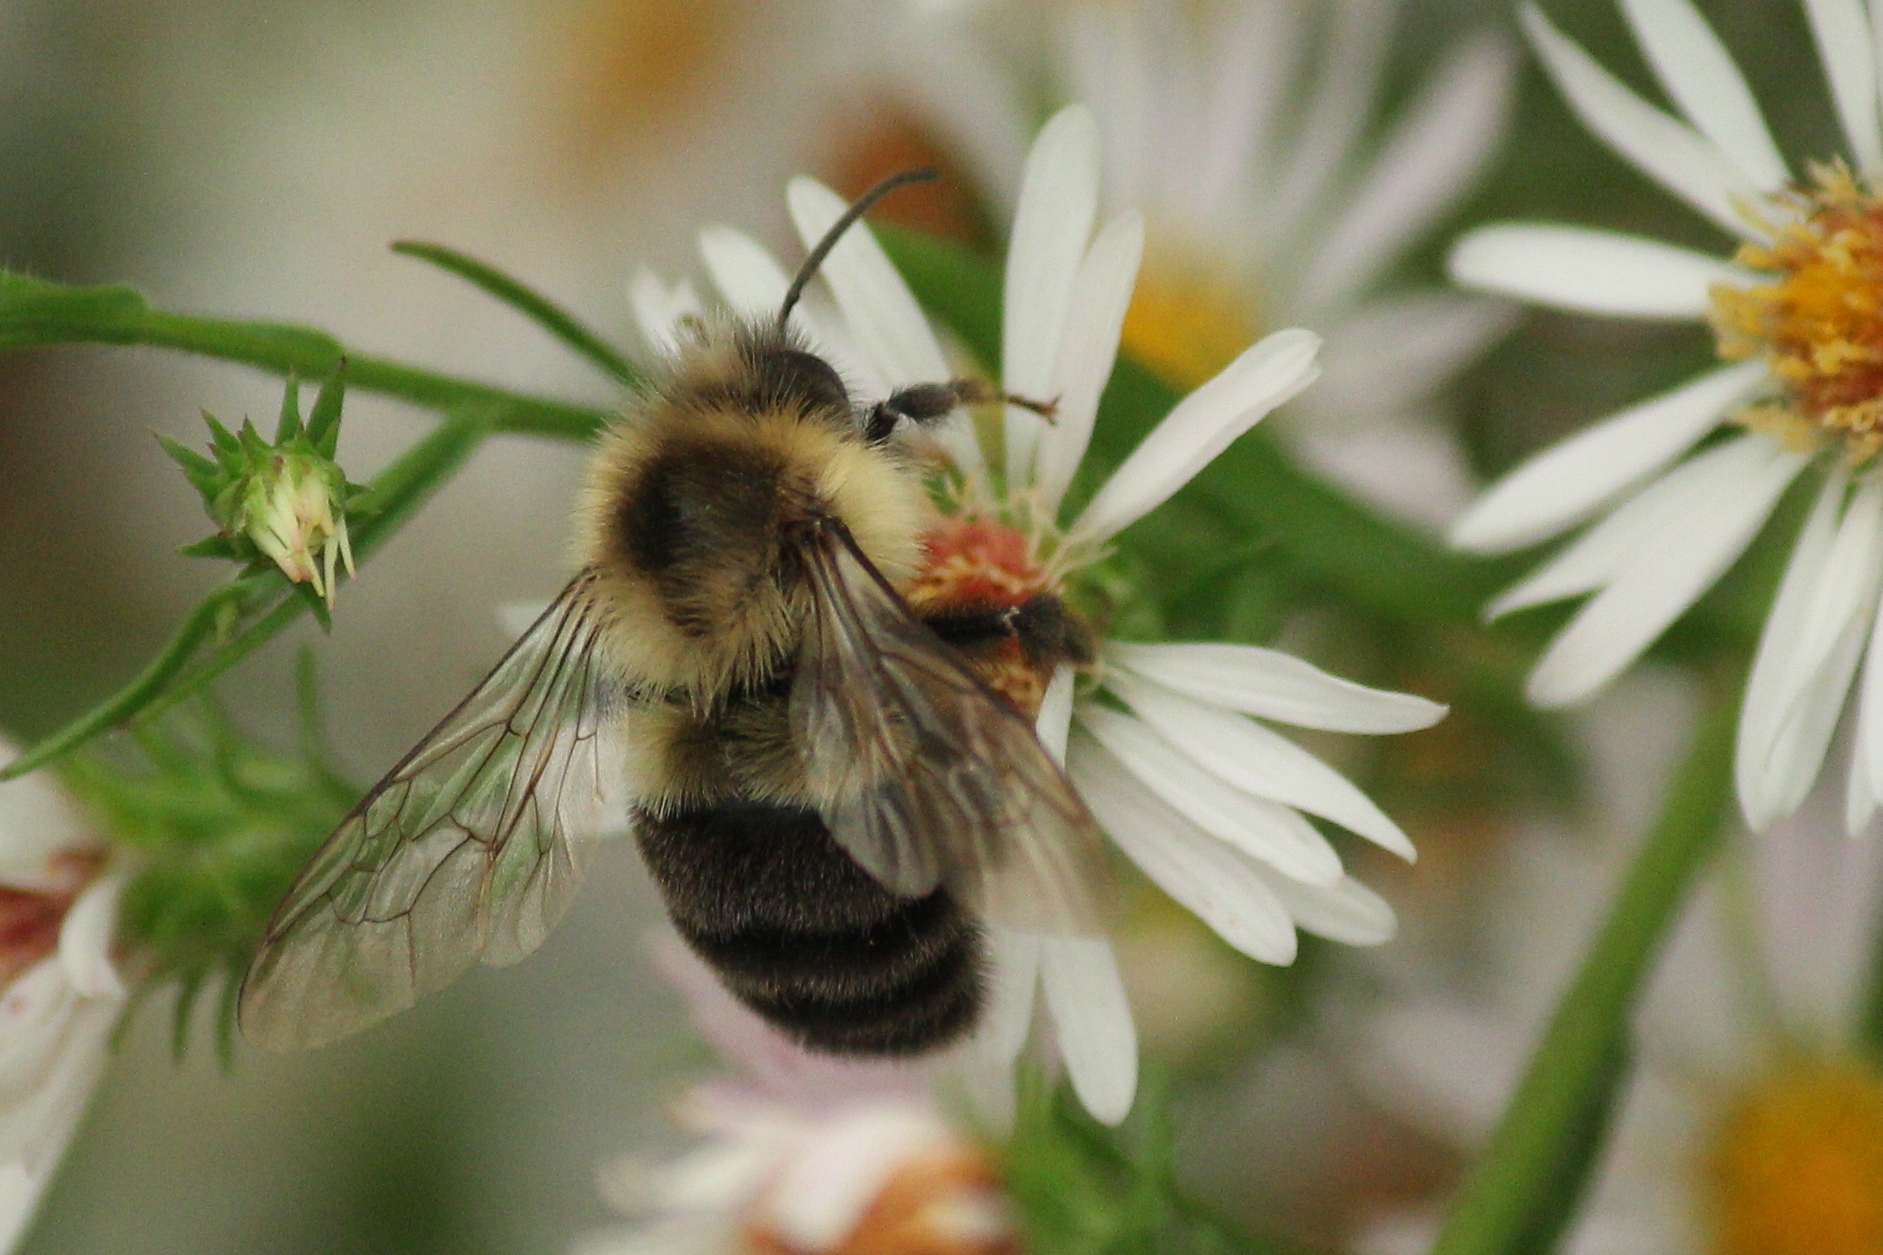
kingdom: Animalia
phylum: Arthropoda
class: Insecta
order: Hymenoptera
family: Apidae
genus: Bombus
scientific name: Bombus impatiens
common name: Common eastern bumble bee
